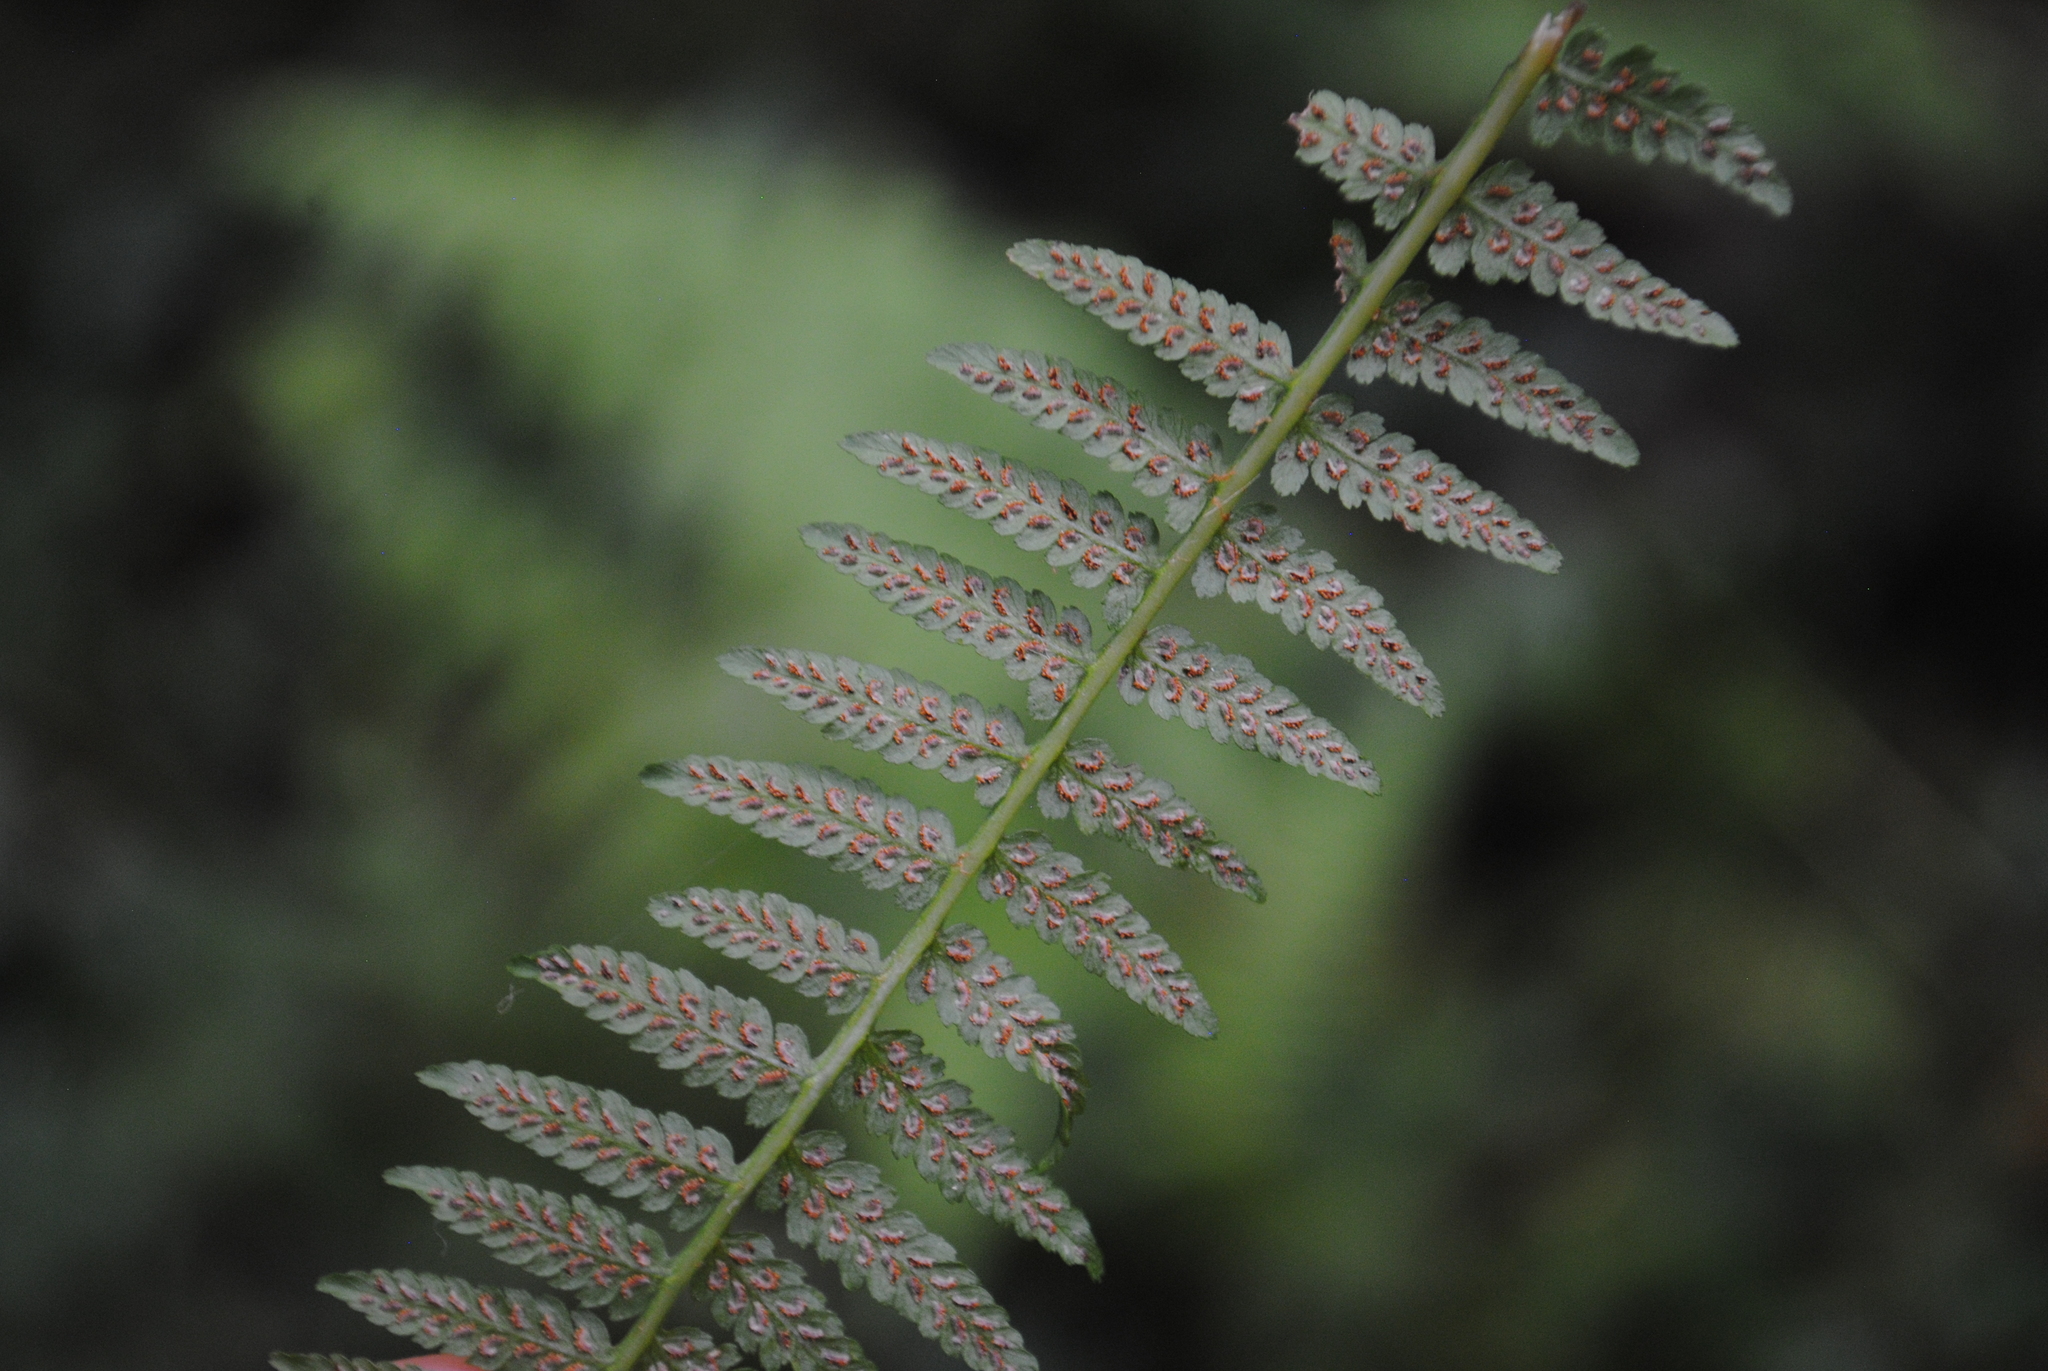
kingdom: Plantae
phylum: Tracheophyta
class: Polypodiopsida
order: Polypodiales
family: Athyriaceae
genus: Athyrium
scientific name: Athyrium angustum
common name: Northern lady fern
